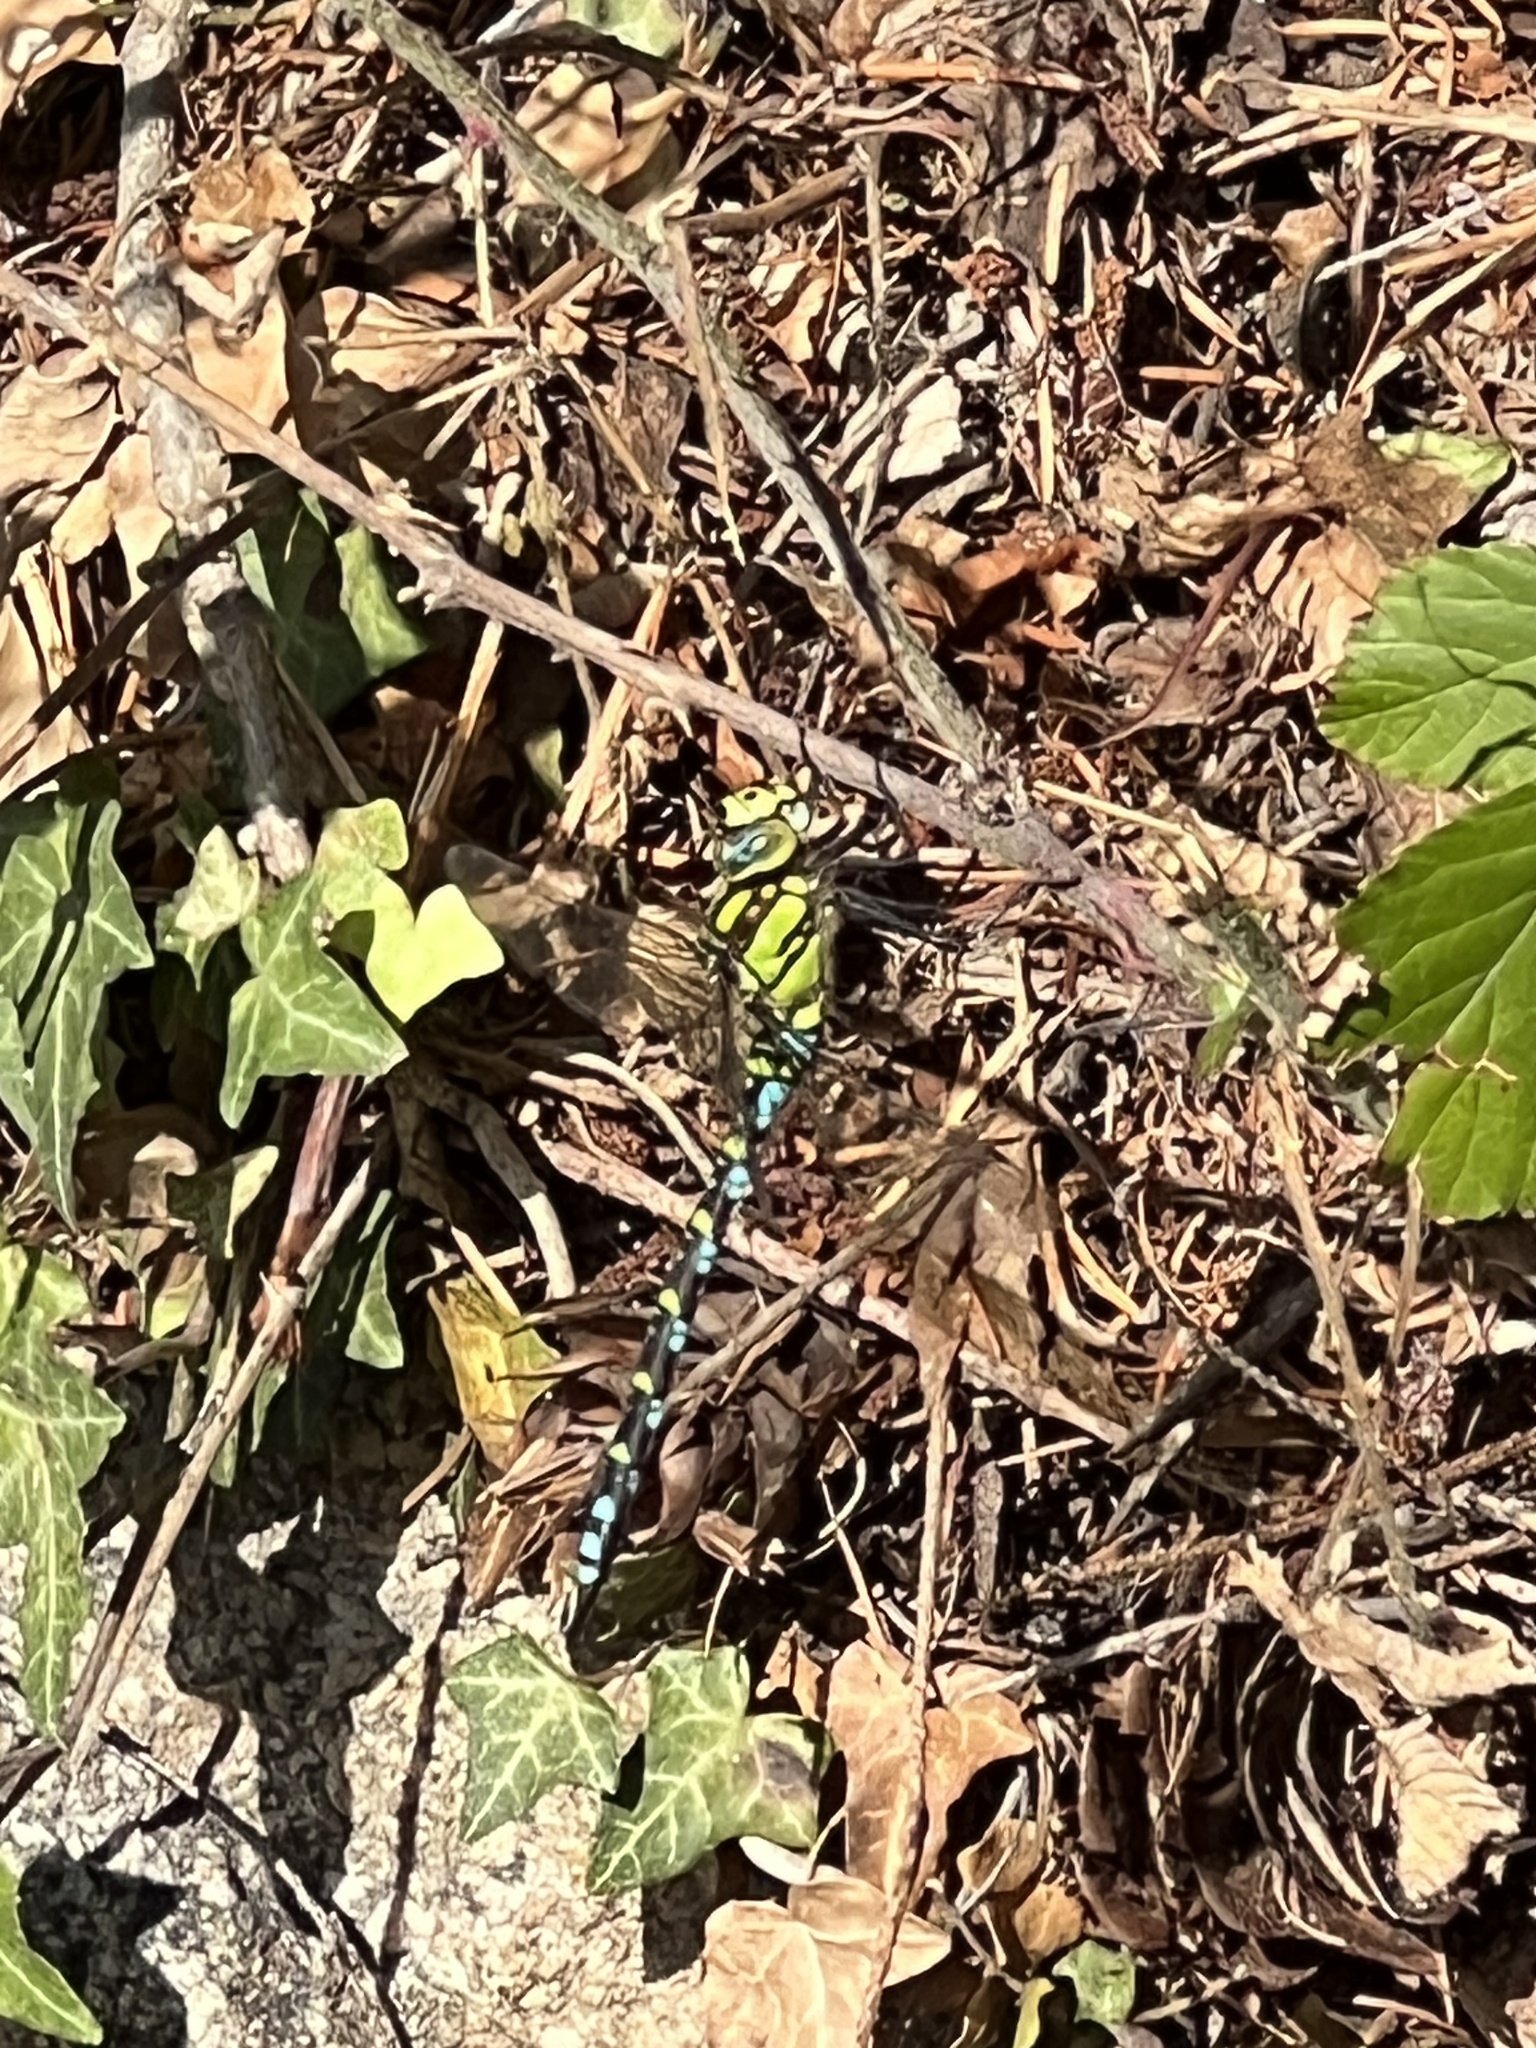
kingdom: Animalia
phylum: Arthropoda
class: Insecta
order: Odonata
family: Aeshnidae
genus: Aeshna
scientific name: Aeshna cyanea
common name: Southern hawker
